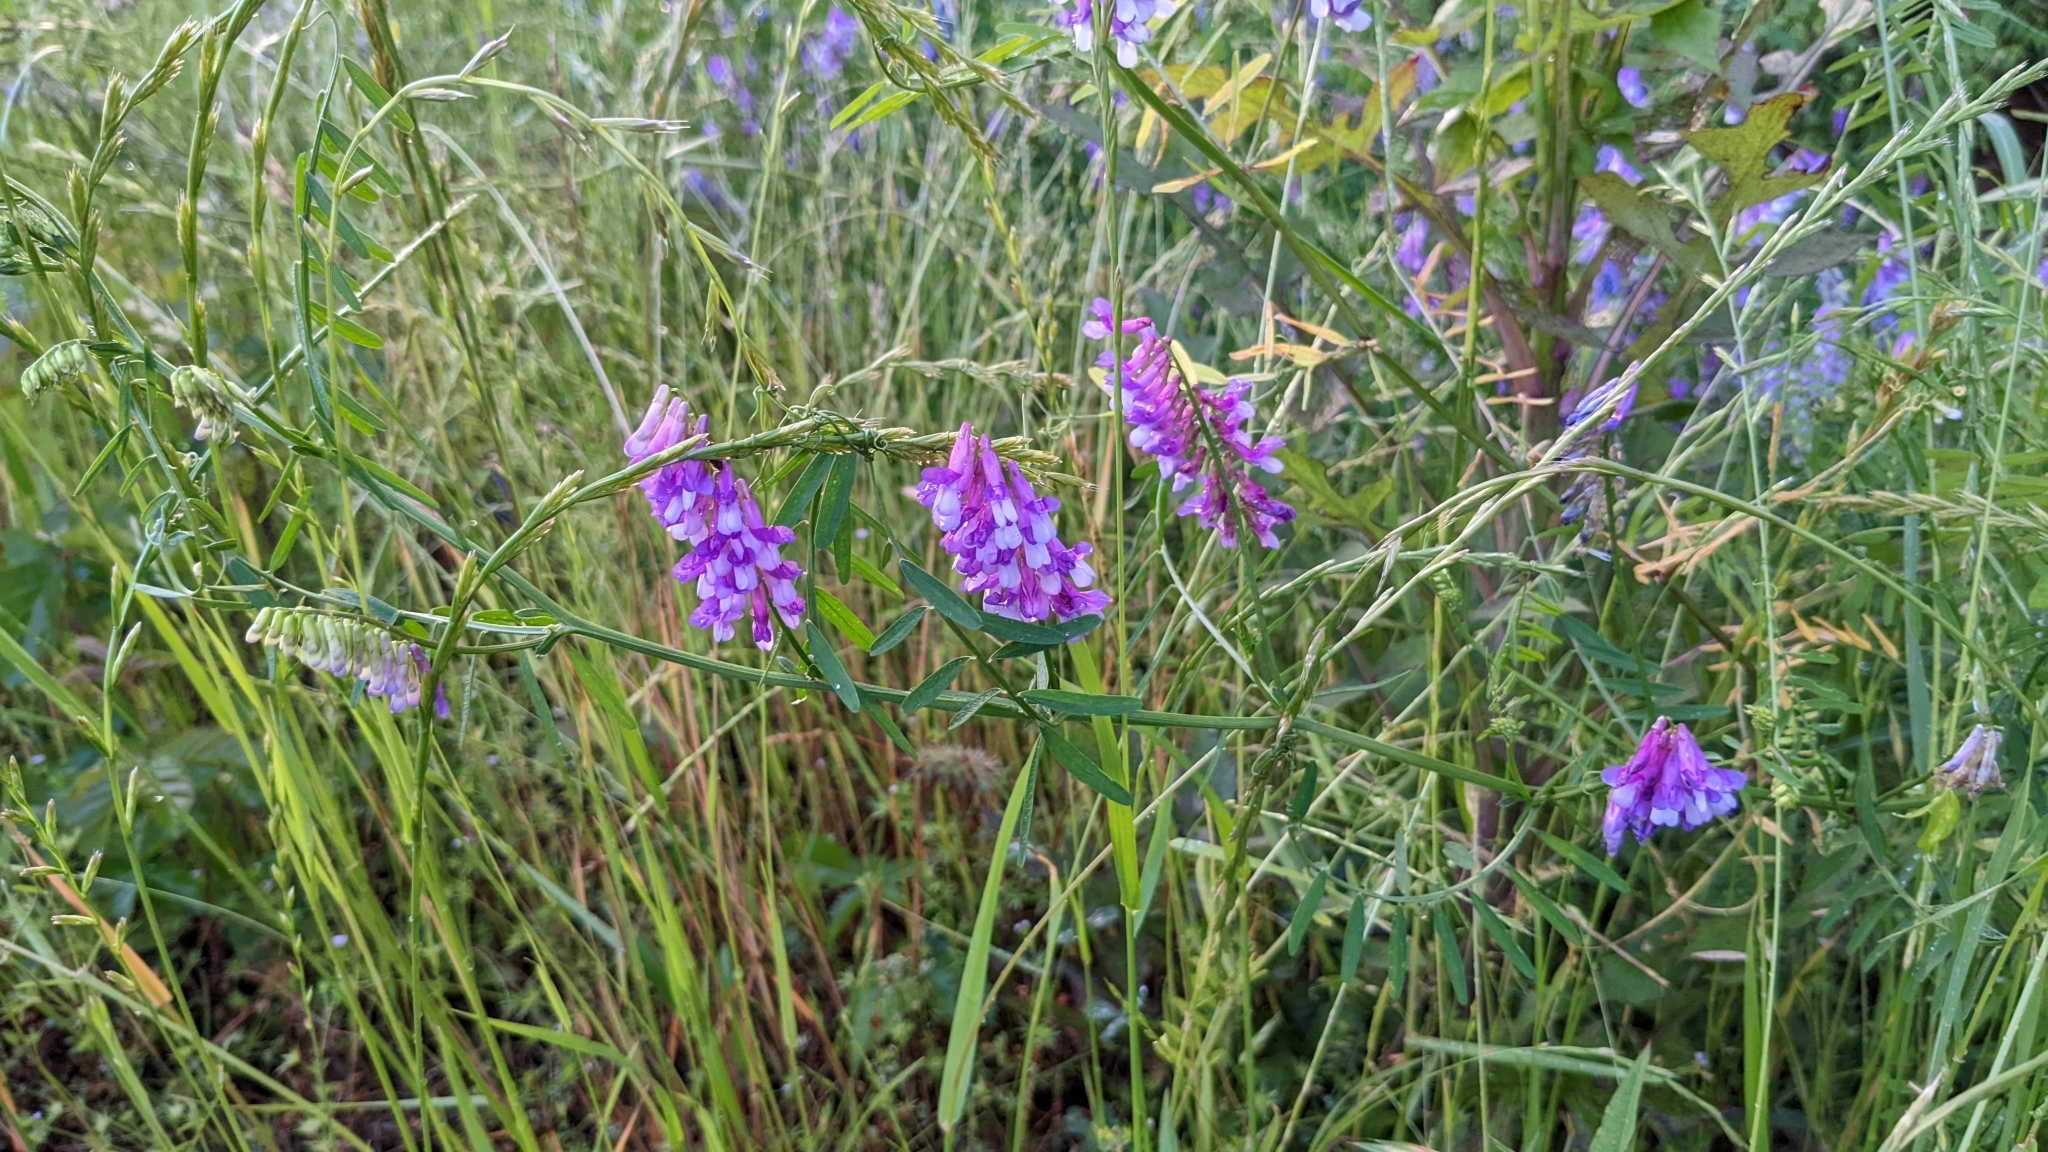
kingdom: Plantae
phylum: Tracheophyta
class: Magnoliopsida
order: Fabales
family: Fabaceae
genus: Vicia
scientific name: Vicia villosa
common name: Fodder vetch
